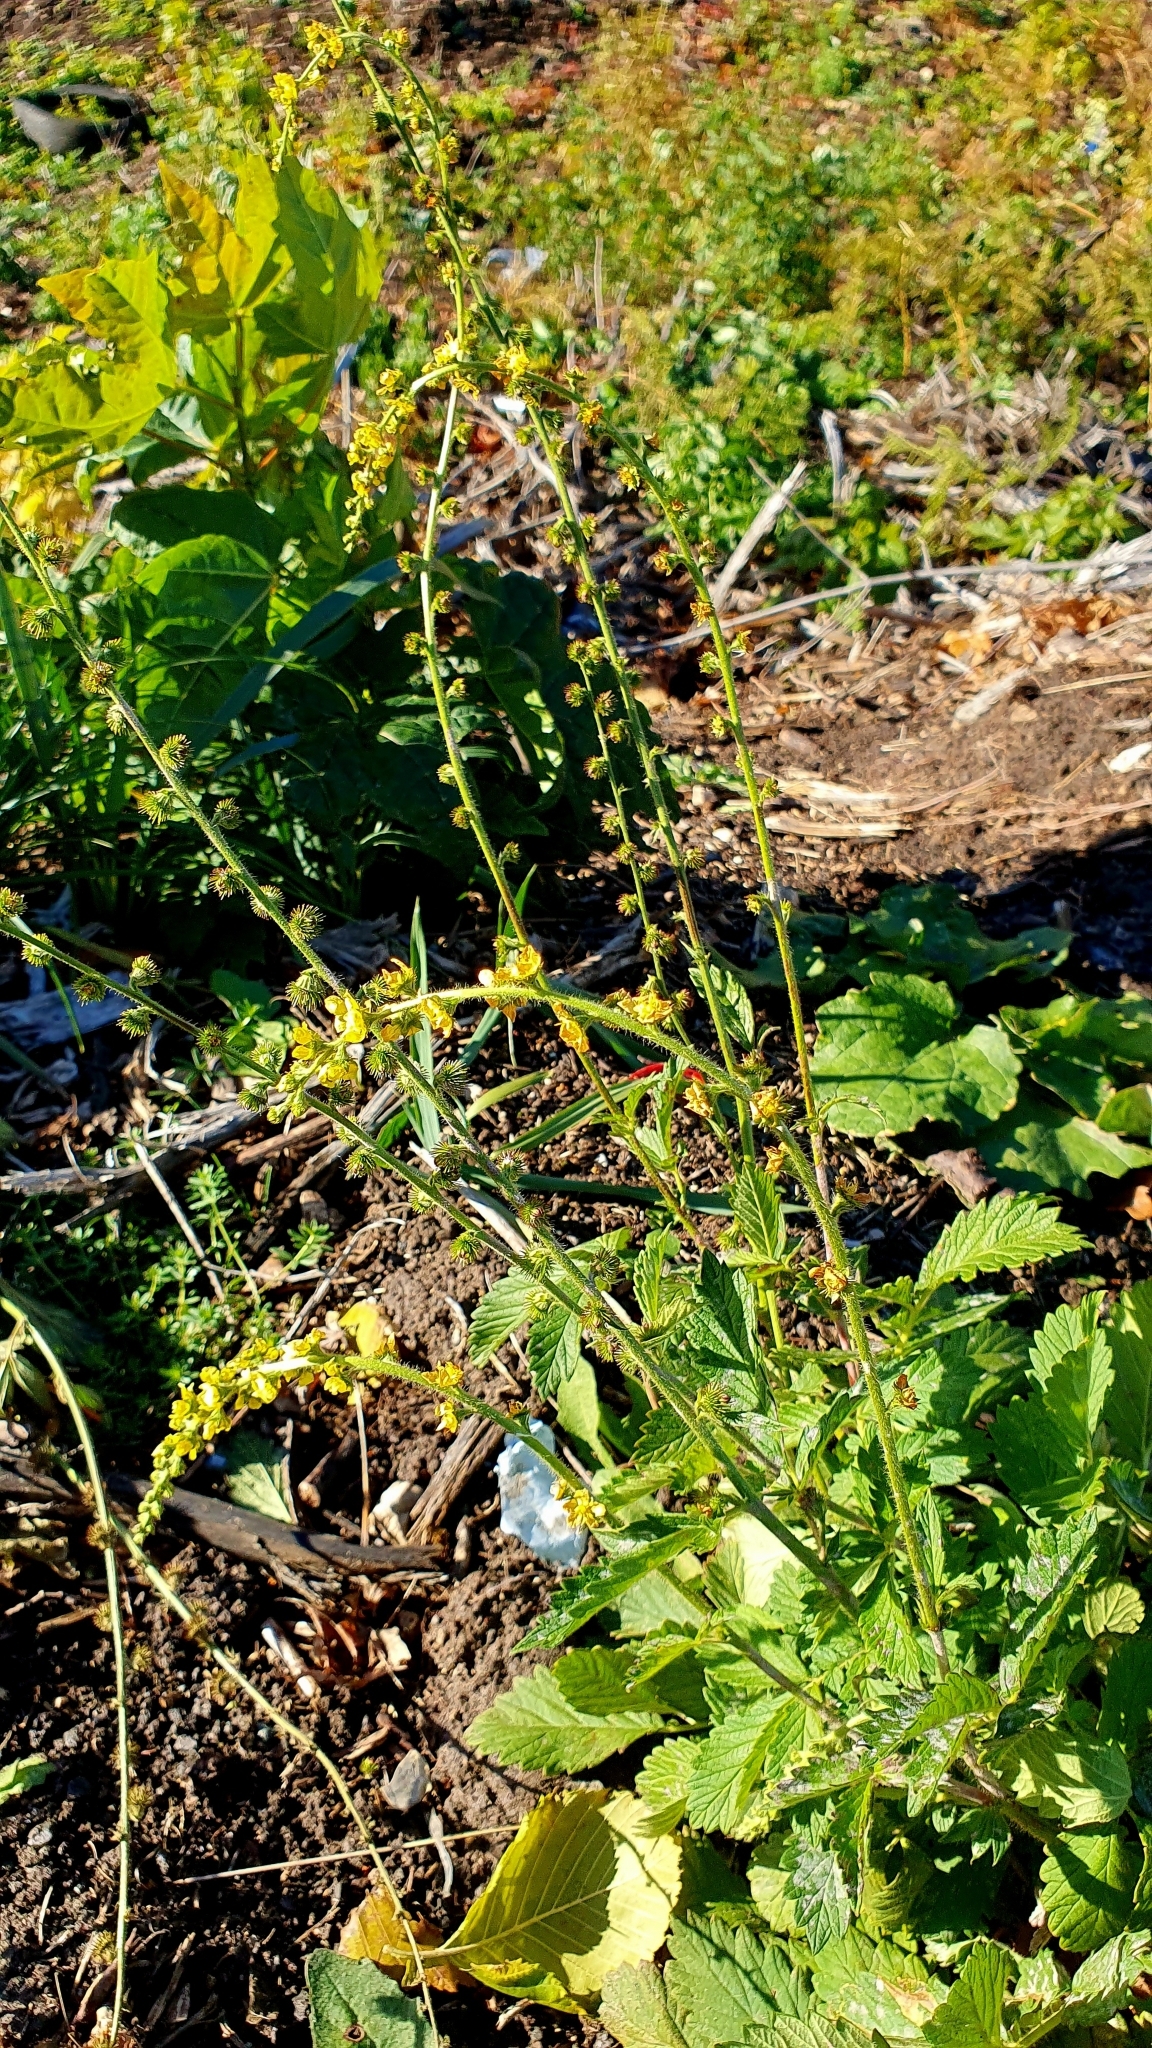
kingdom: Plantae
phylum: Tracheophyta
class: Magnoliopsida
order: Rosales
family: Rosaceae
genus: Agrimonia
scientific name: Agrimonia eupatoria
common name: Agrimony
